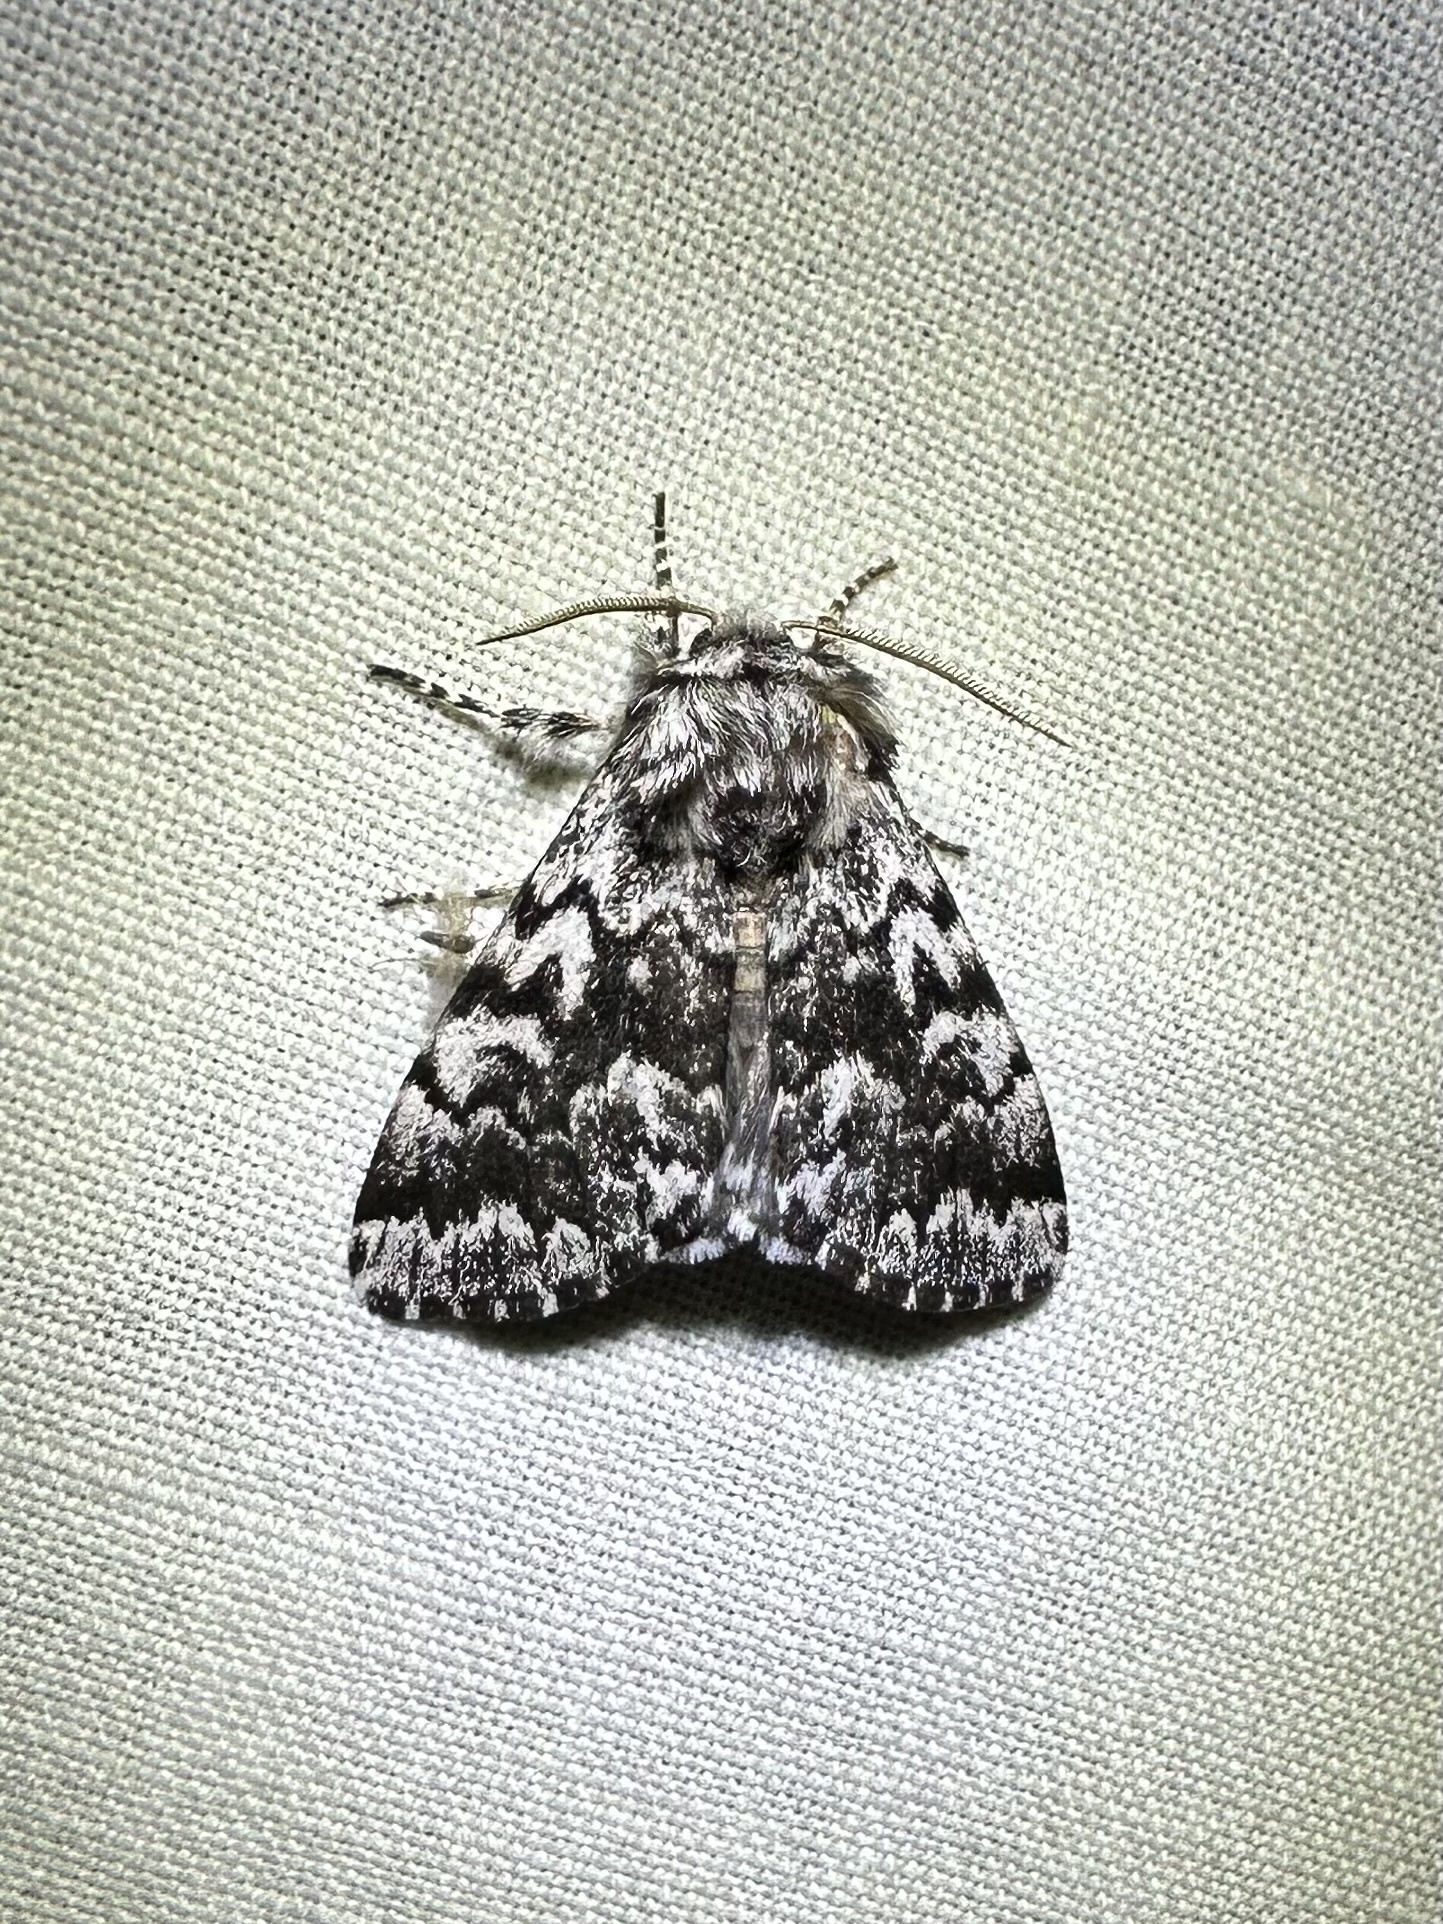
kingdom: Animalia
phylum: Arthropoda
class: Insecta
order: Lepidoptera
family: Noctuidae
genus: Panthea
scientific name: Panthea acronyctoides
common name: Black zigzag moth
